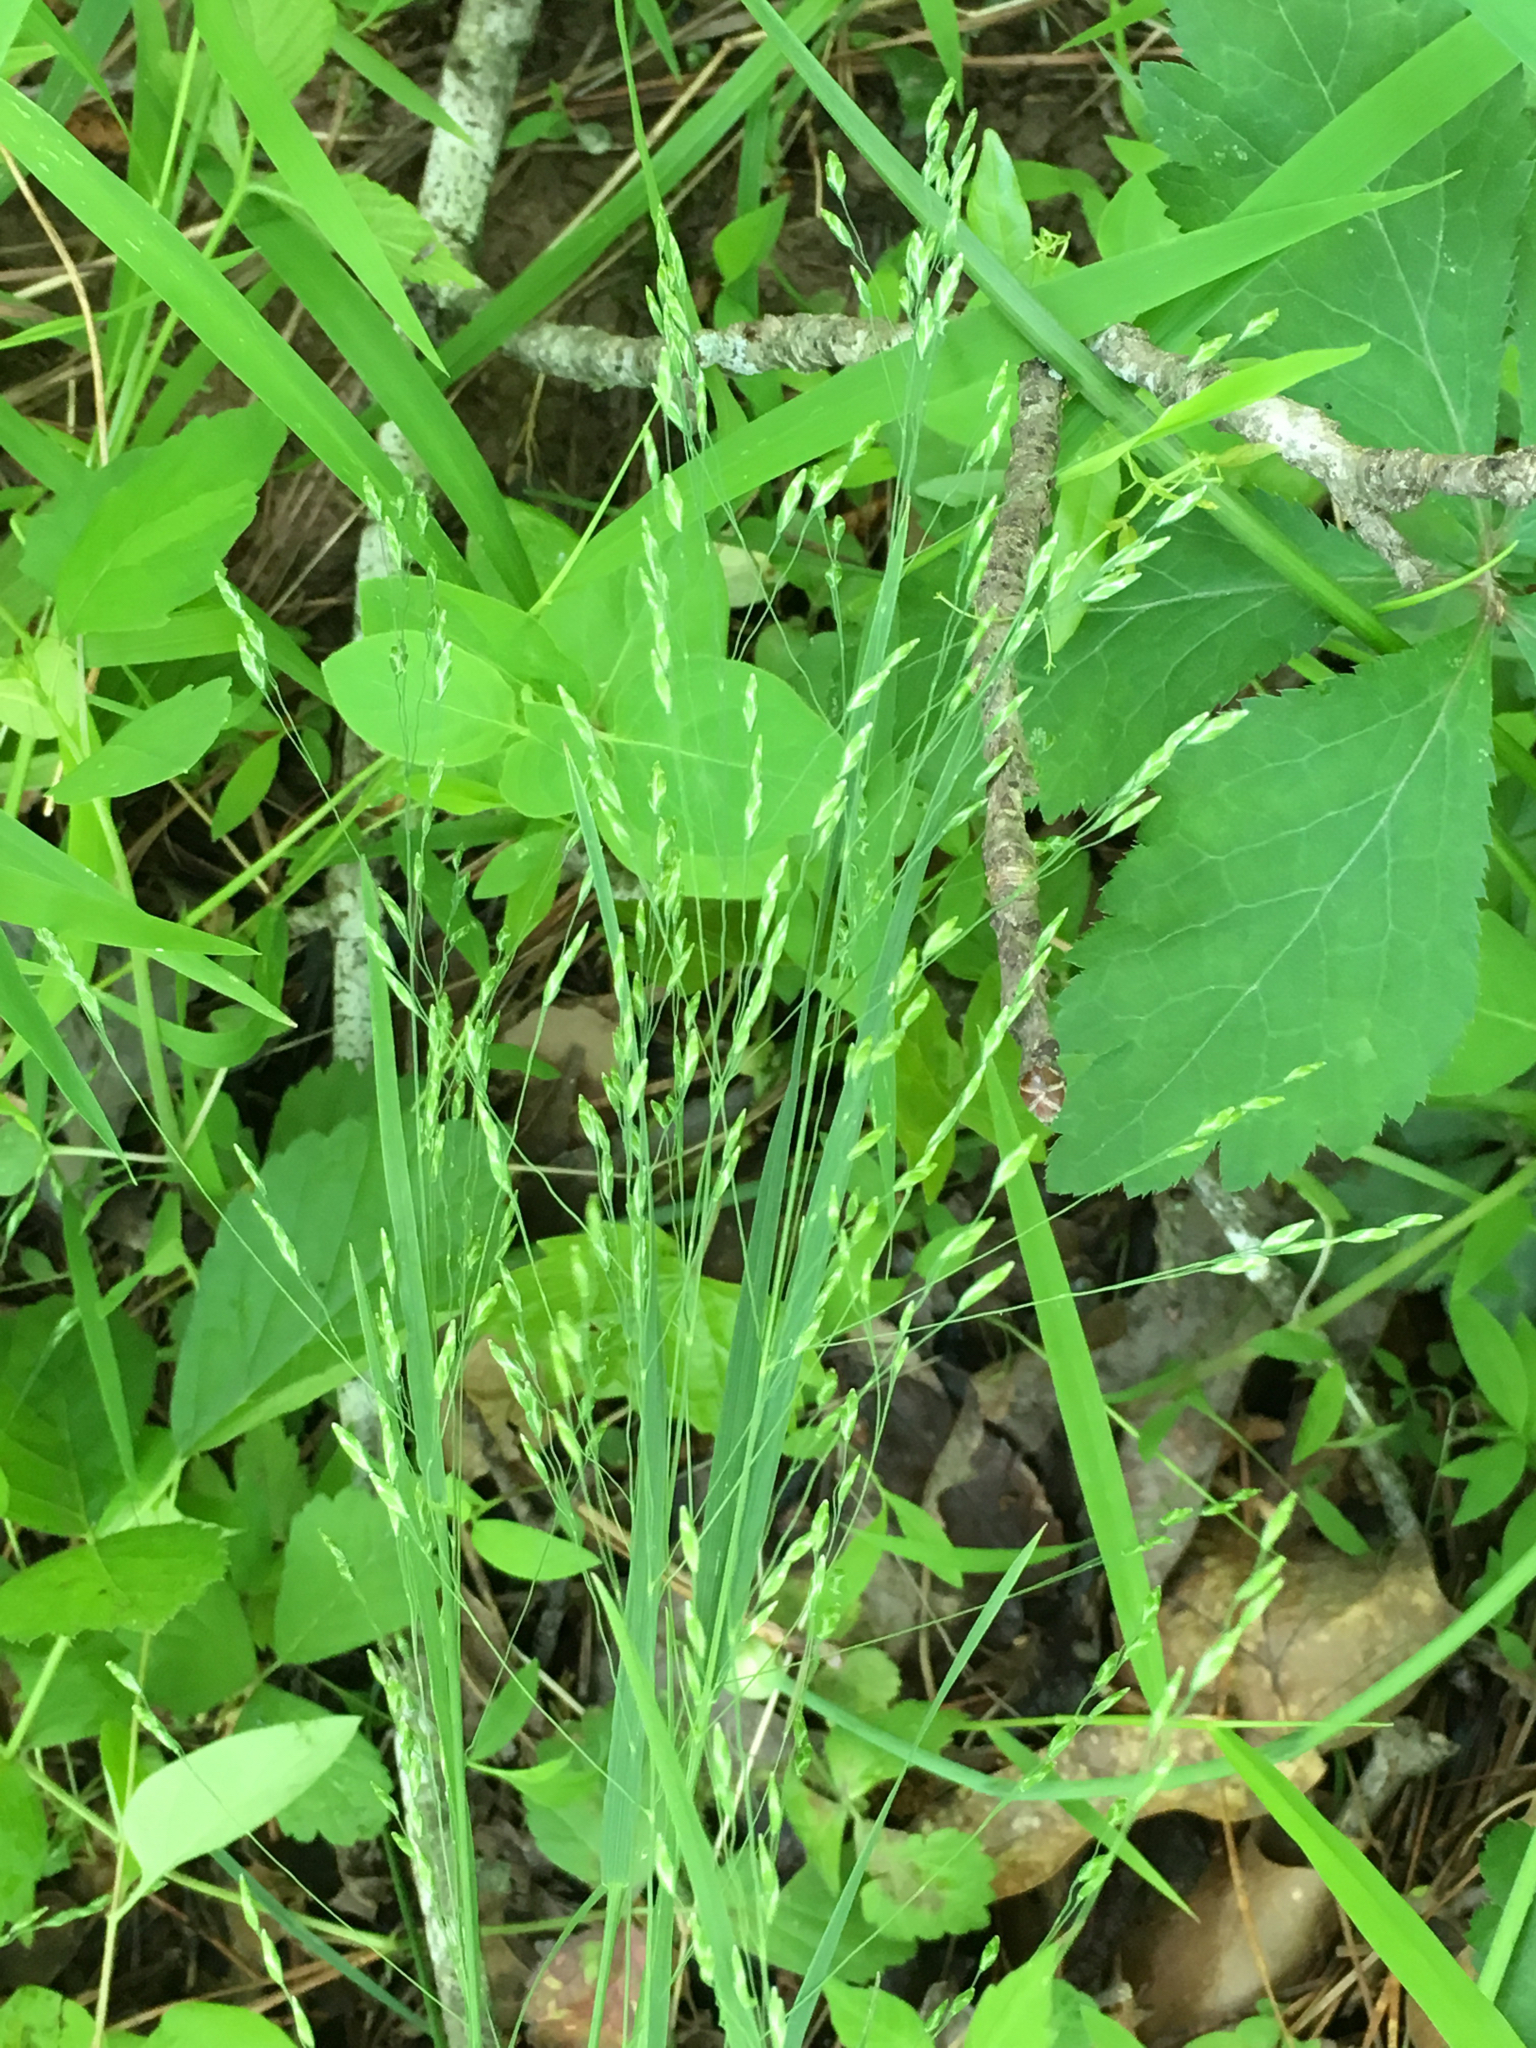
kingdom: Plantae
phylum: Tracheophyta
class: Liliopsida
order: Poales
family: Poaceae
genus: Festuca
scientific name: Festuca subverticillata
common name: Nodding fescue
